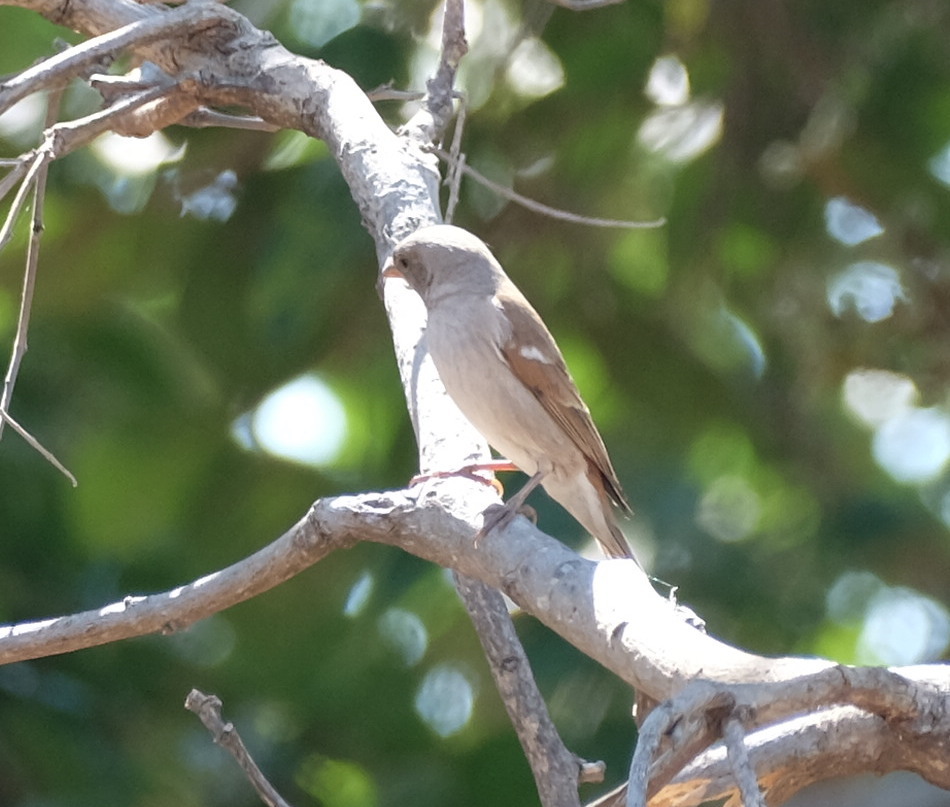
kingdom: Animalia
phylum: Chordata
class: Aves
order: Passeriformes
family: Passeridae
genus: Passer
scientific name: Passer diffusus
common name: Southern grey-headed sparrow
